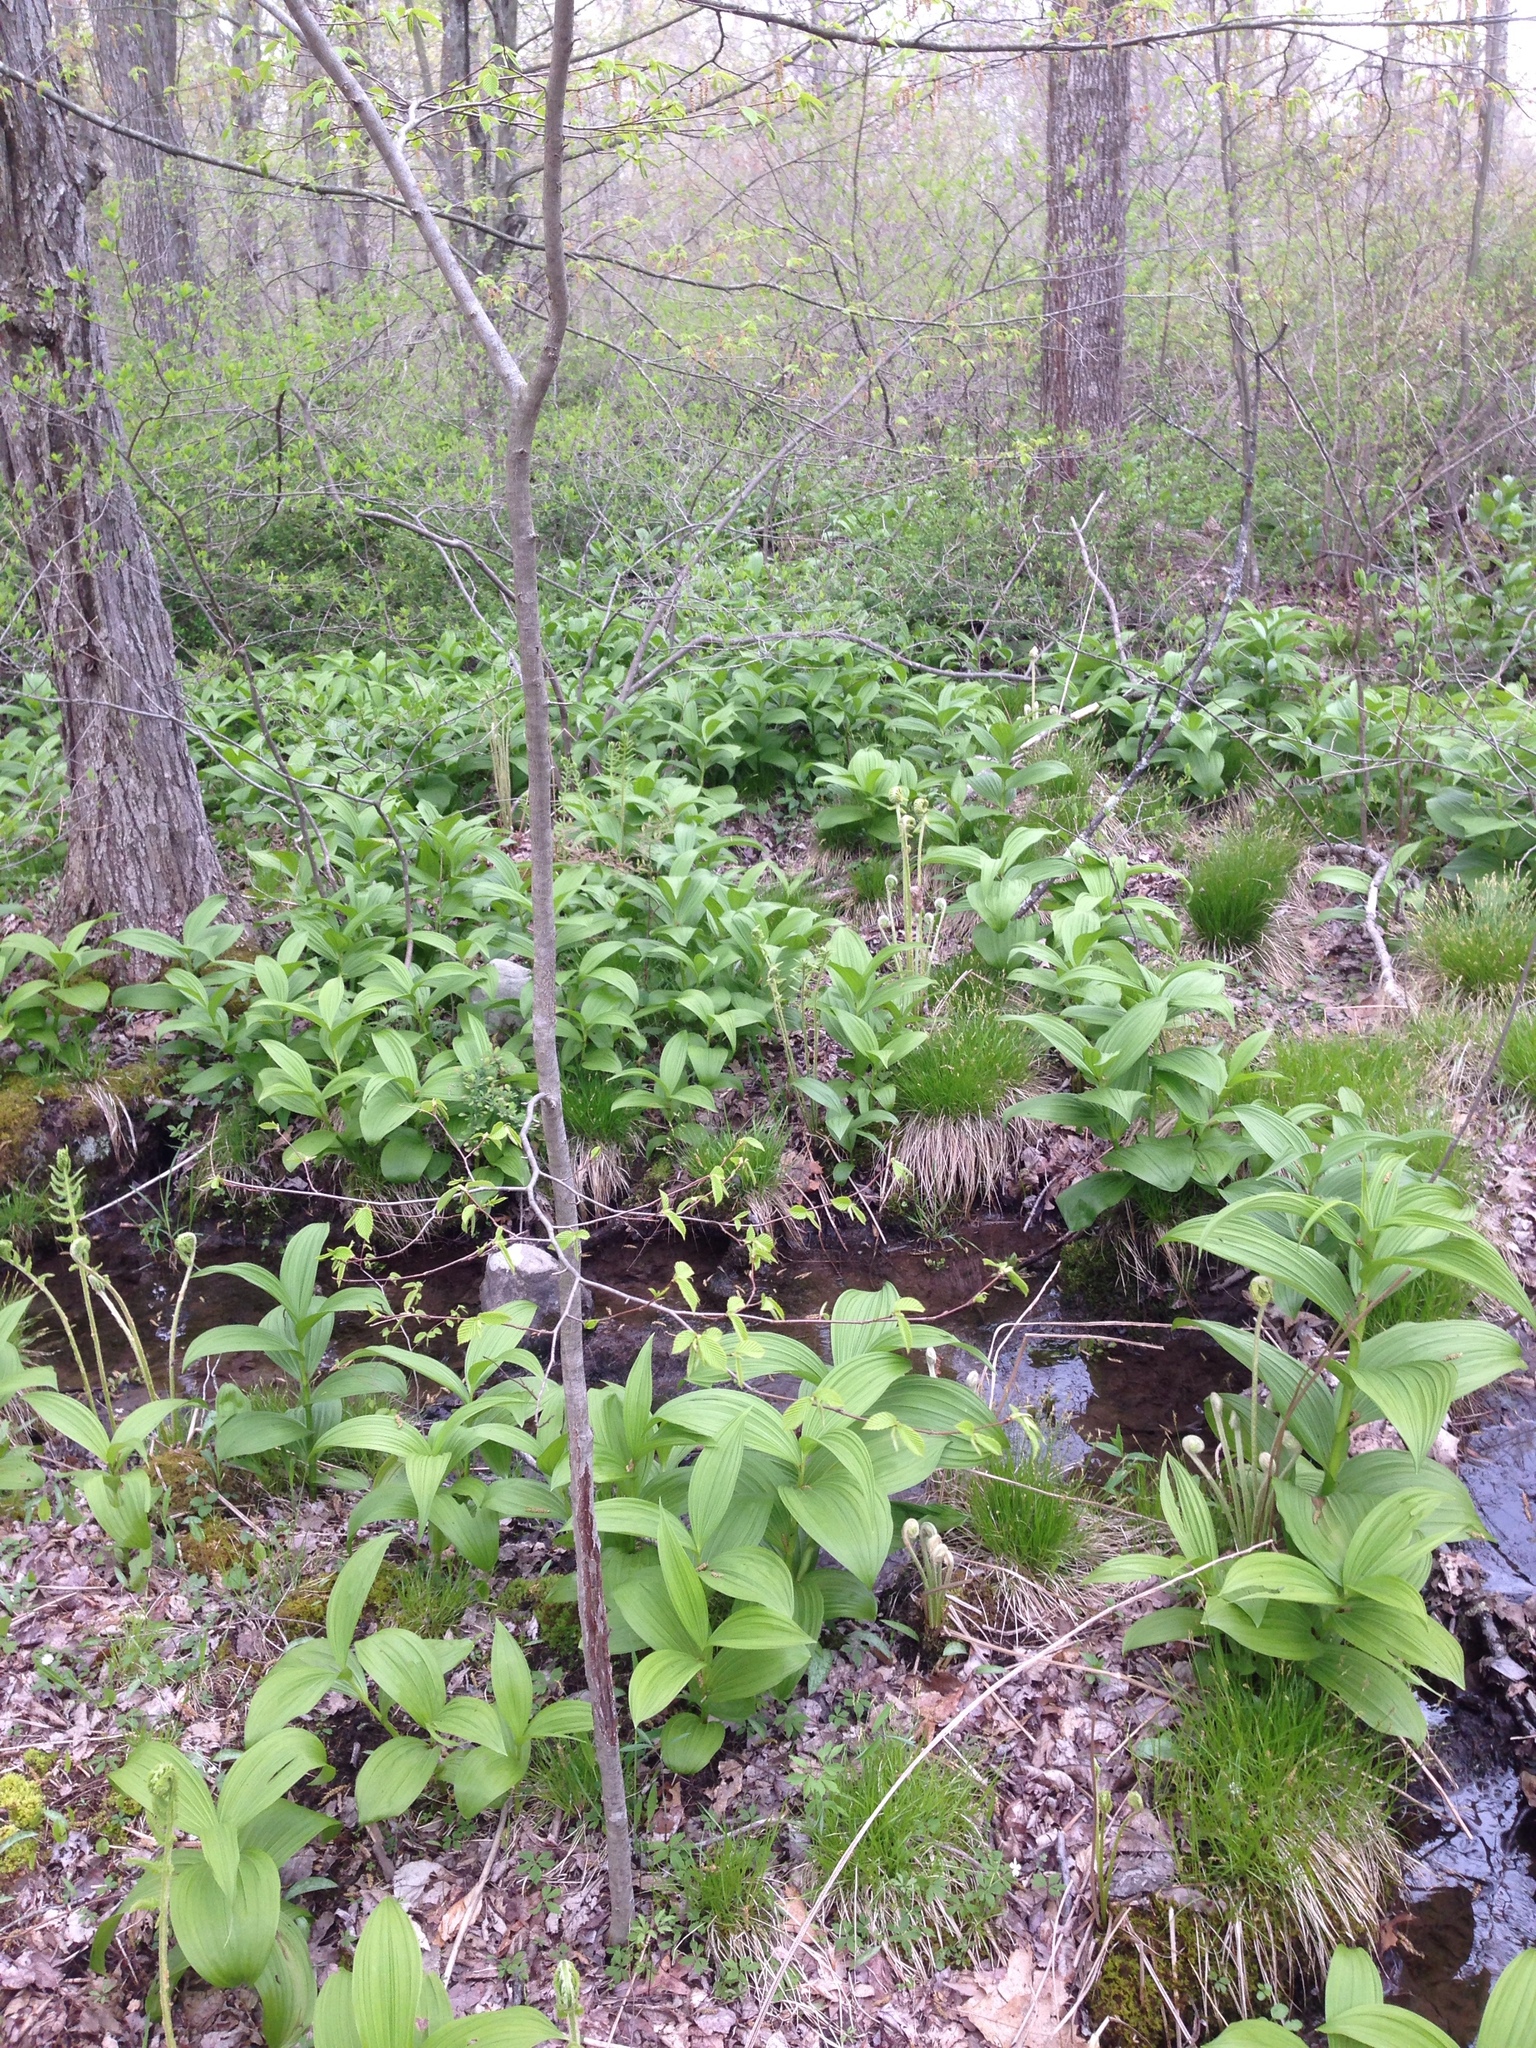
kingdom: Plantae
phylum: Tracheophyta
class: Liliopsida
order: Liliales
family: Melanthiaceae
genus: Veratrum
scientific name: Veratrum viride
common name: American false hellebore
